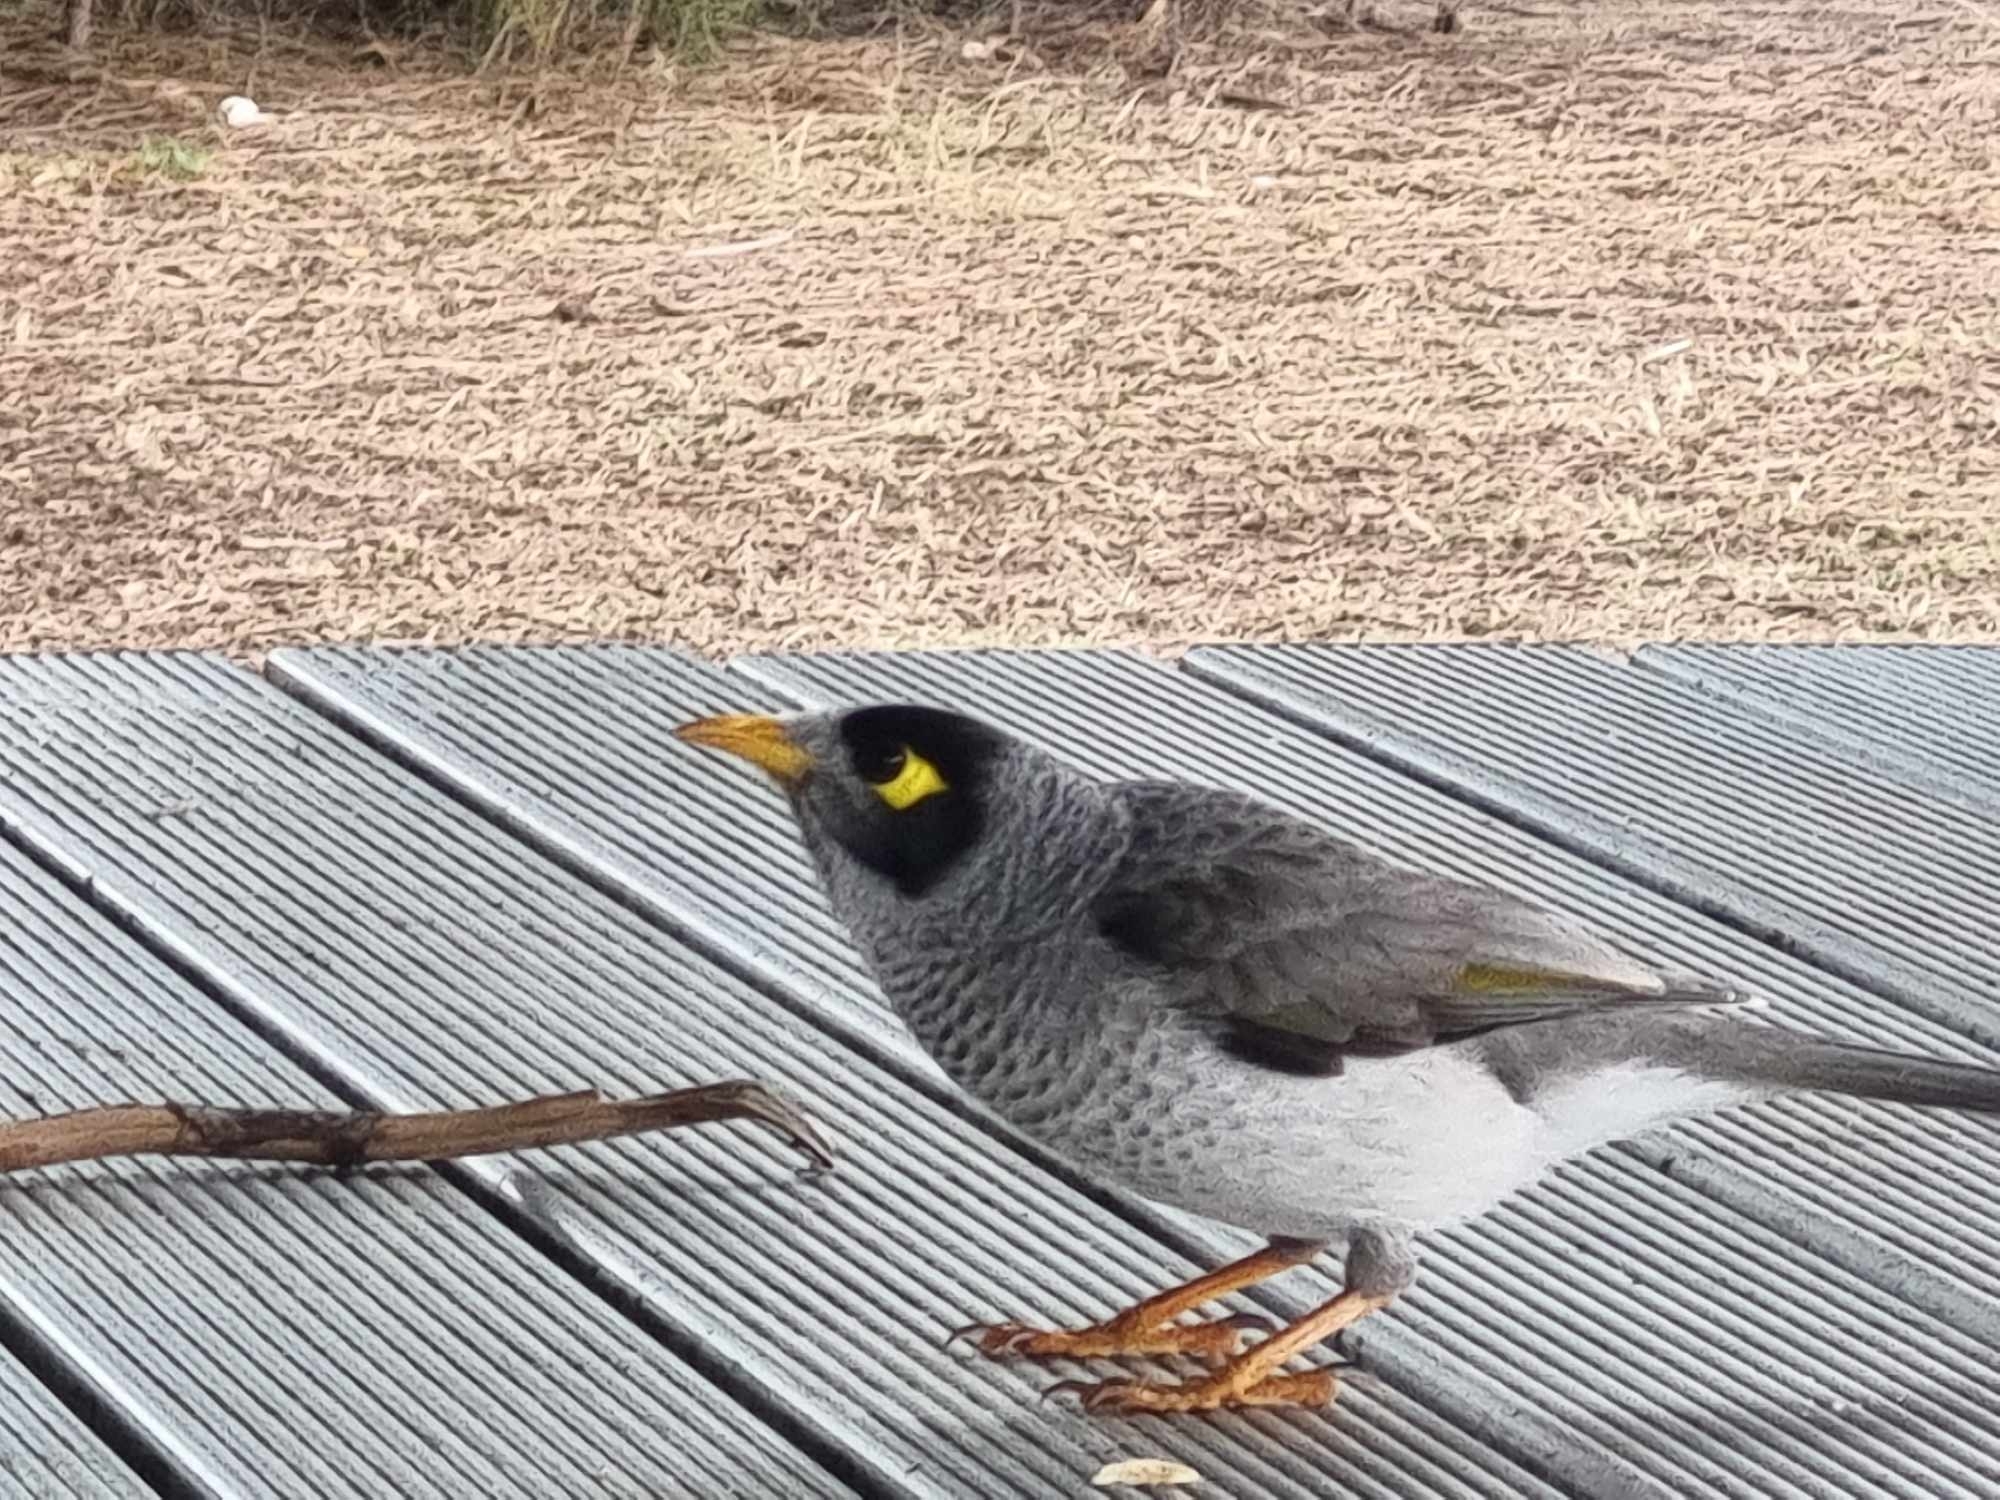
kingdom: Animalia
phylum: Chordata
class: Aves
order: Passeriformes
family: Meliphagidae
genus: Manorina
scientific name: Manorina melanocephala
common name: Noisy miner
